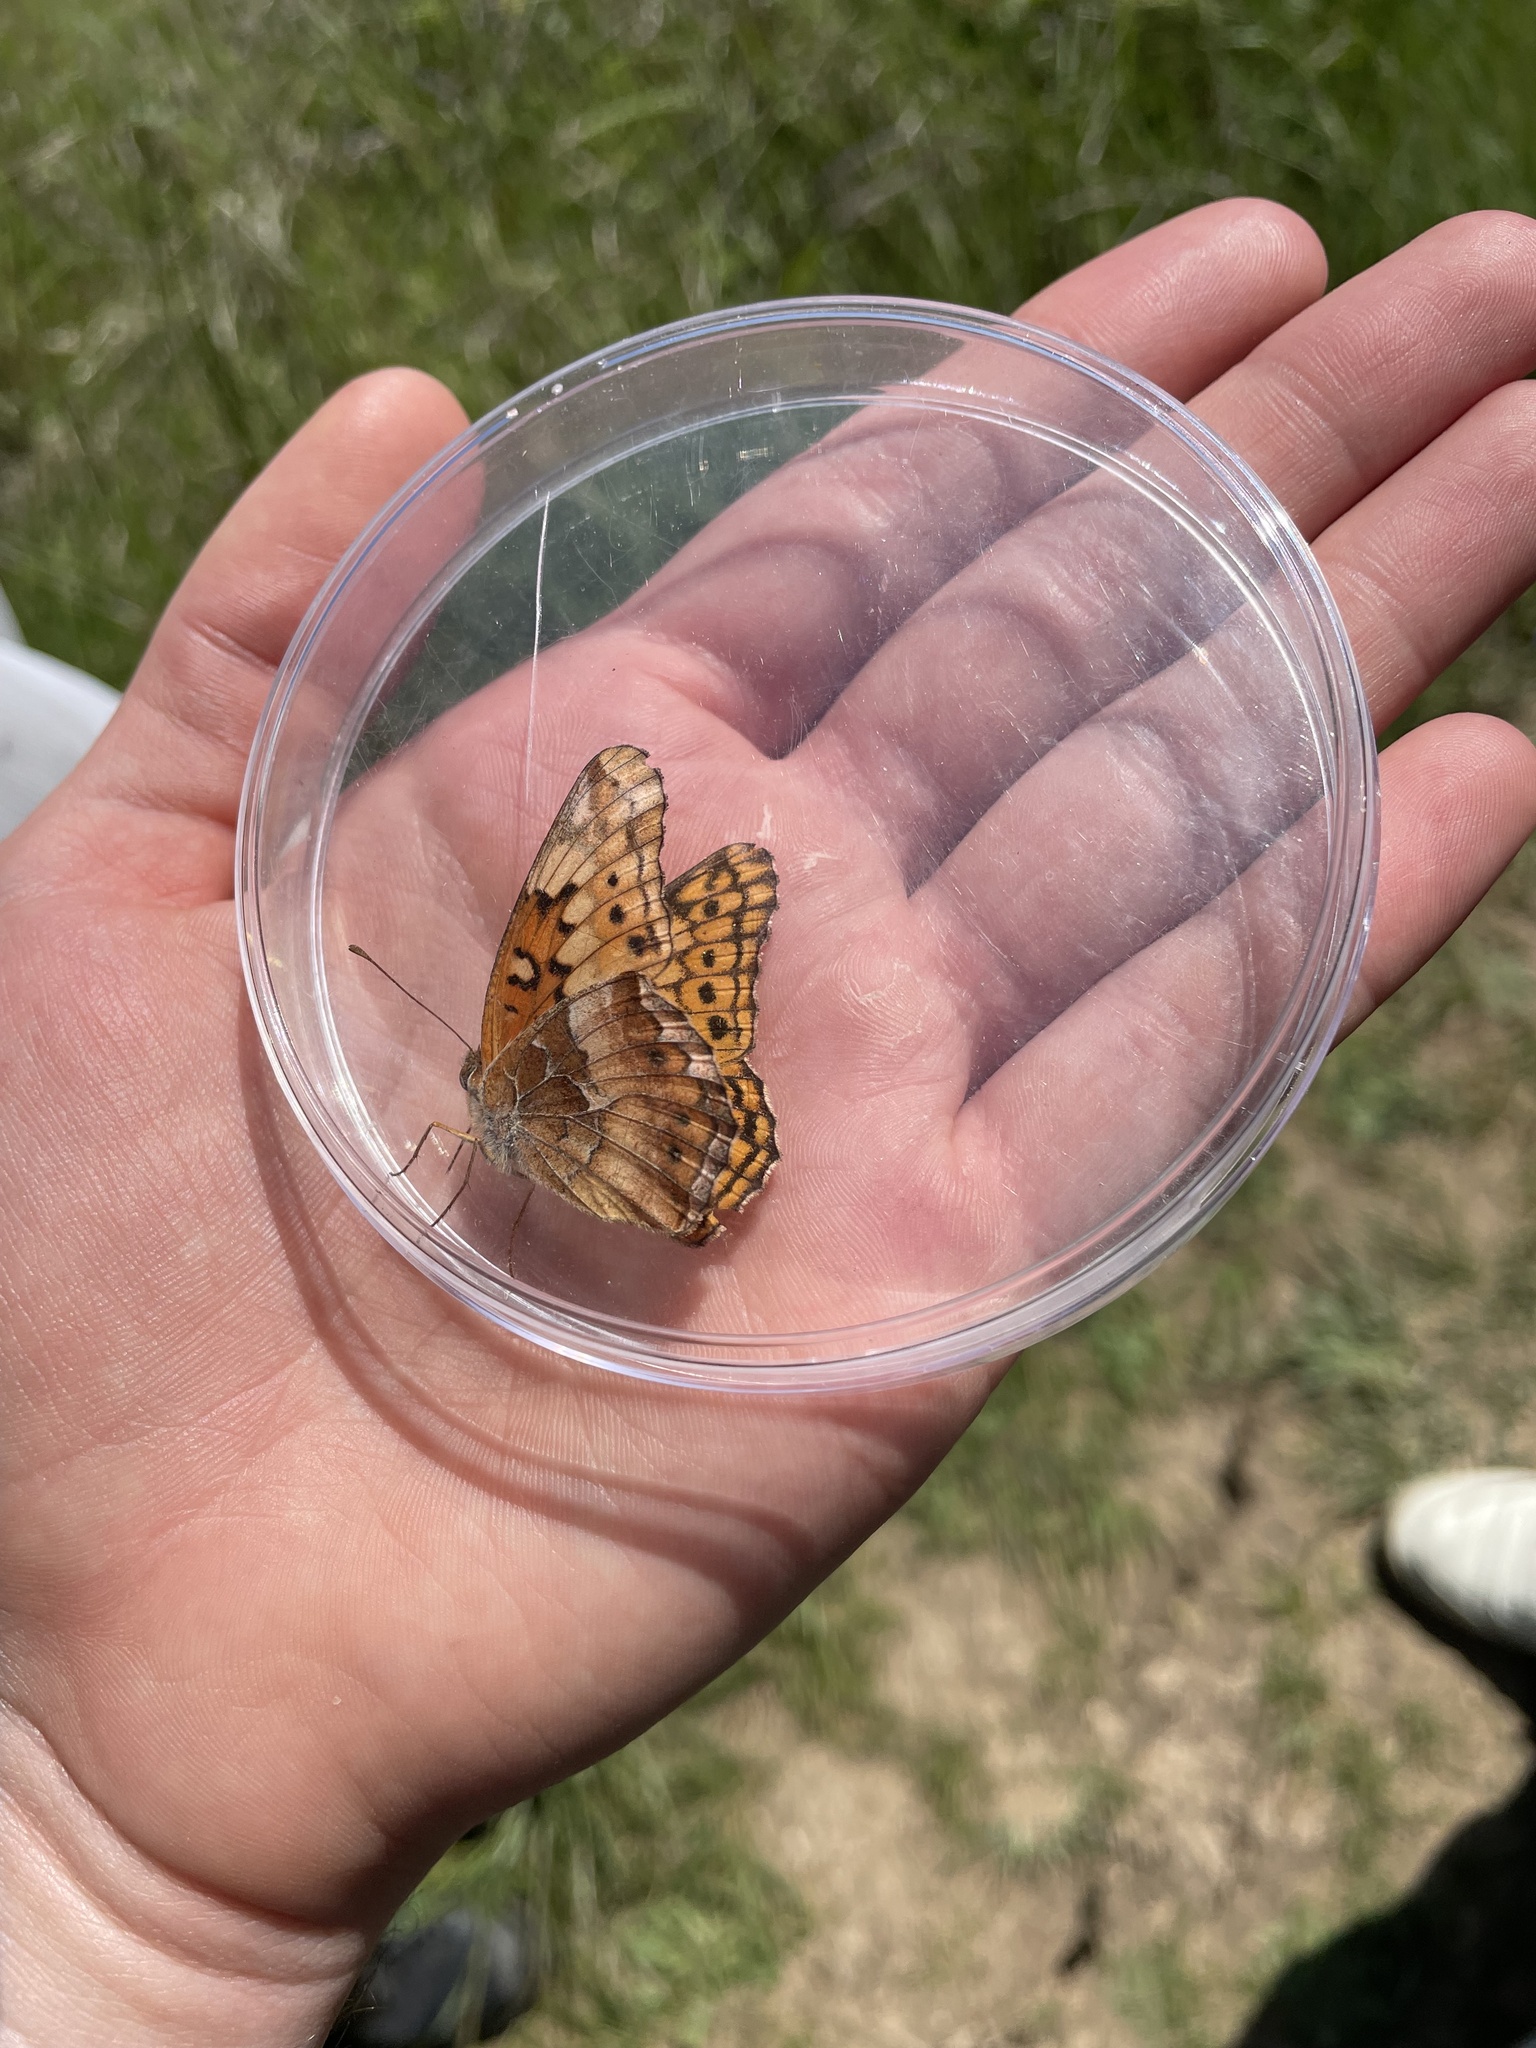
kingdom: Animalia
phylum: Arthropoda
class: Insecta
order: Lepidoptera
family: Nymphalidae
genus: Euptoieta
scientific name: Euptoieta claudia
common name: Variegated fritillary
